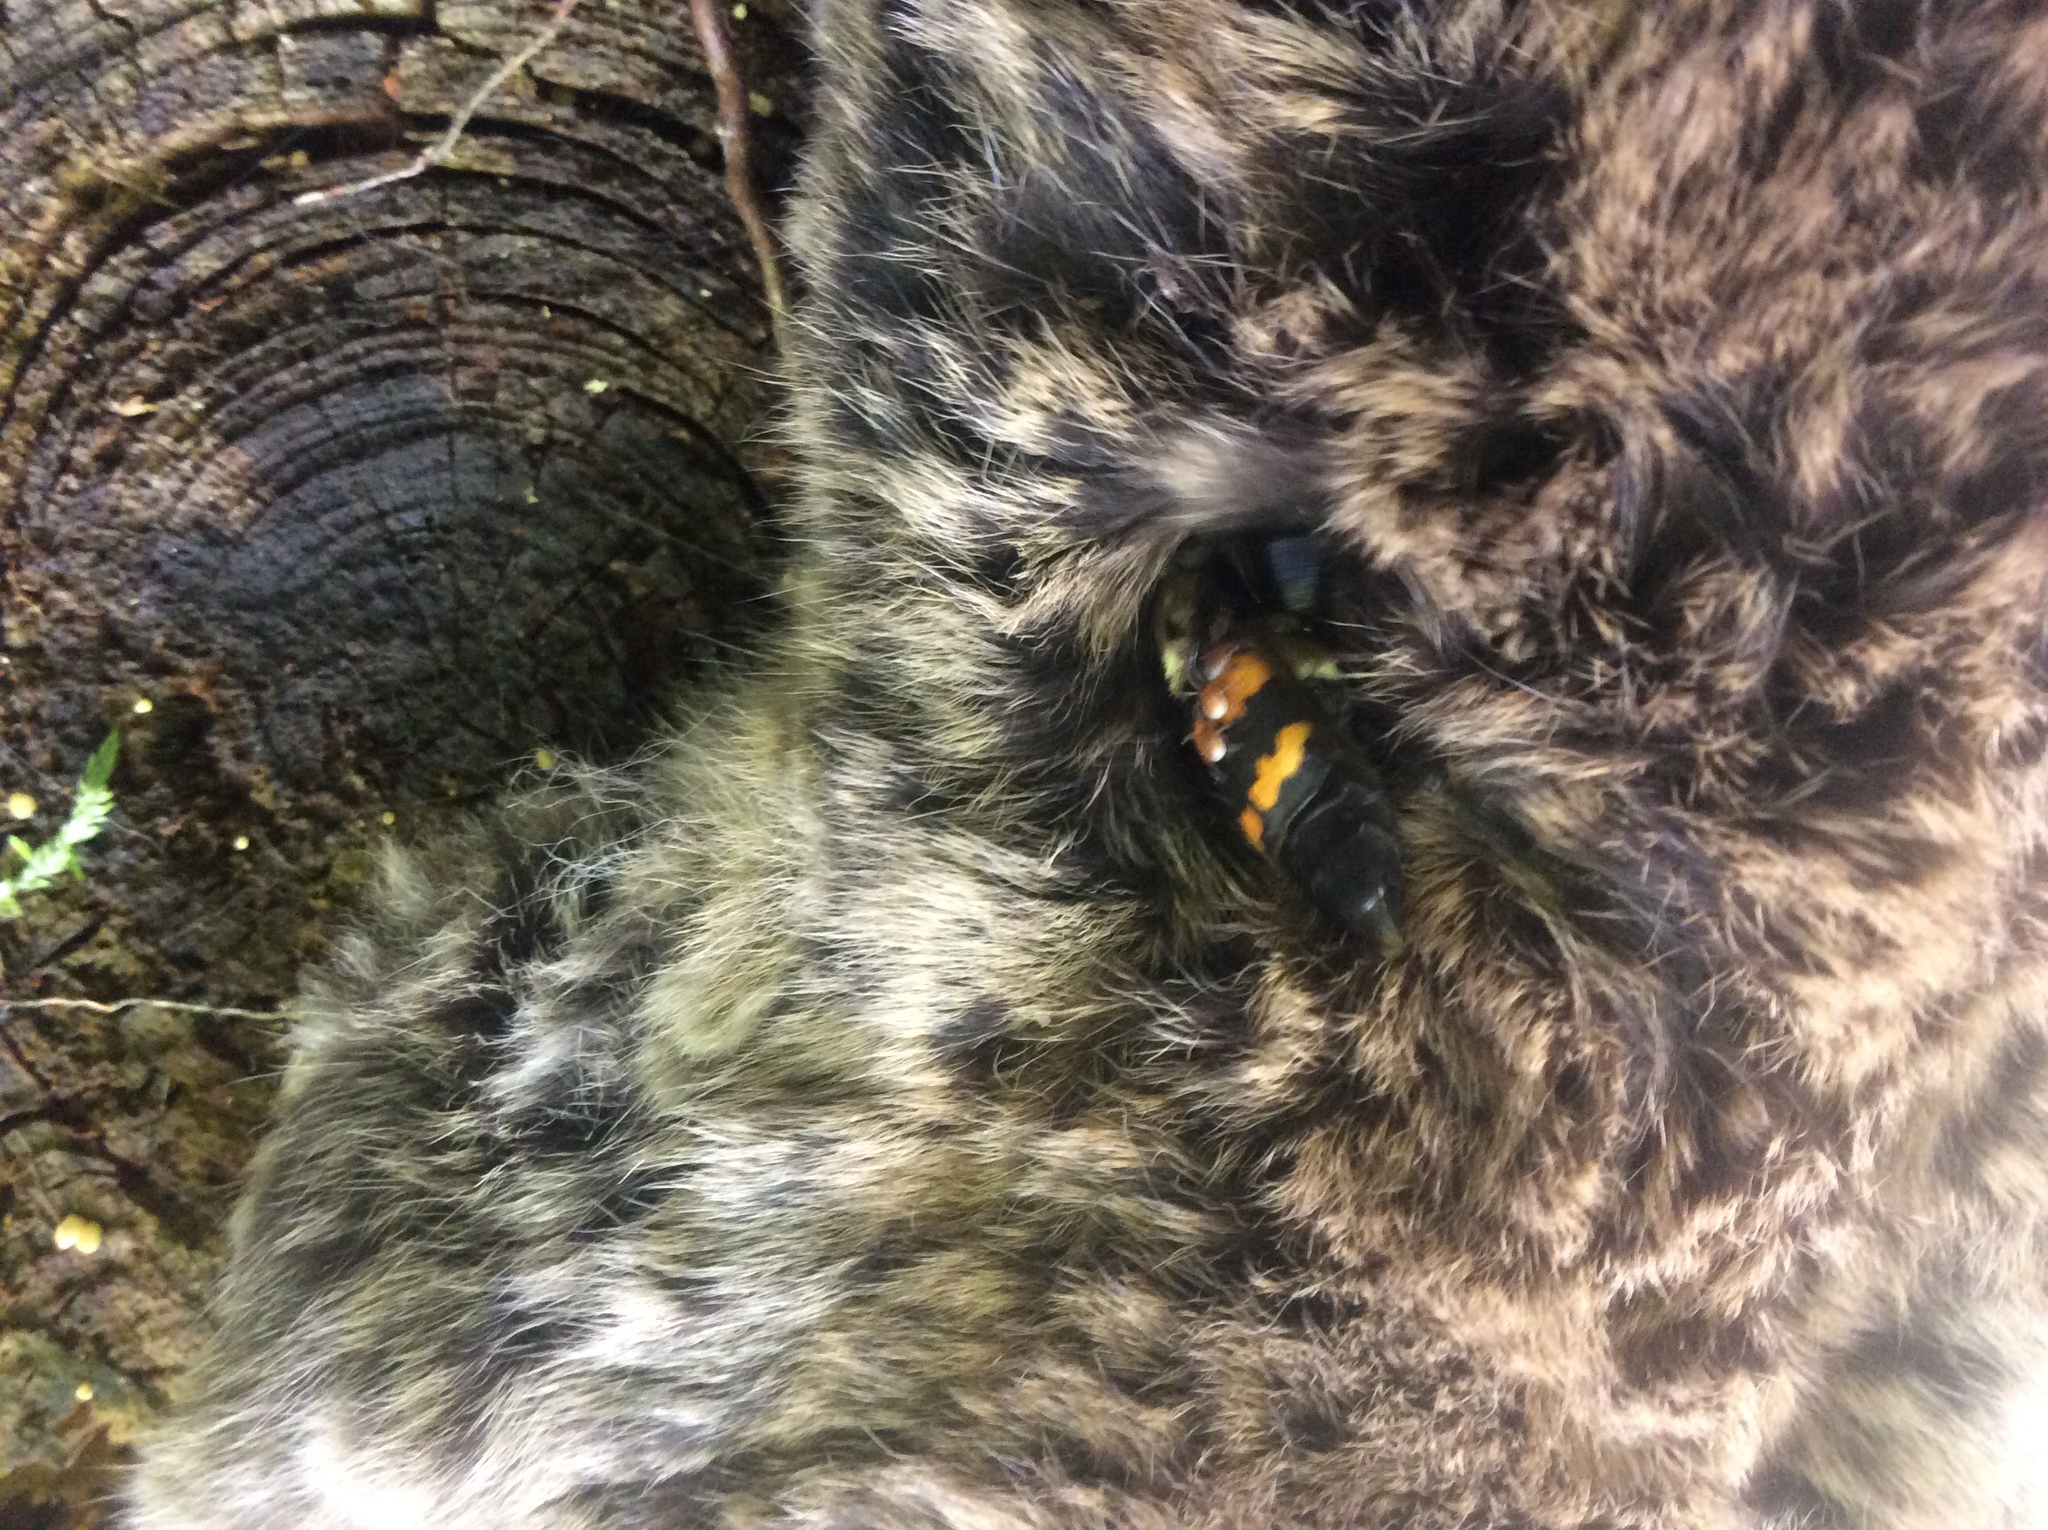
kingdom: Animalia
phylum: Arthropoda
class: Insecta
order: Coleoptera
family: Staphylinidae
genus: Nicrophorus
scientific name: Nicrophorus tomentosus
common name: Tomentose burying beetle
